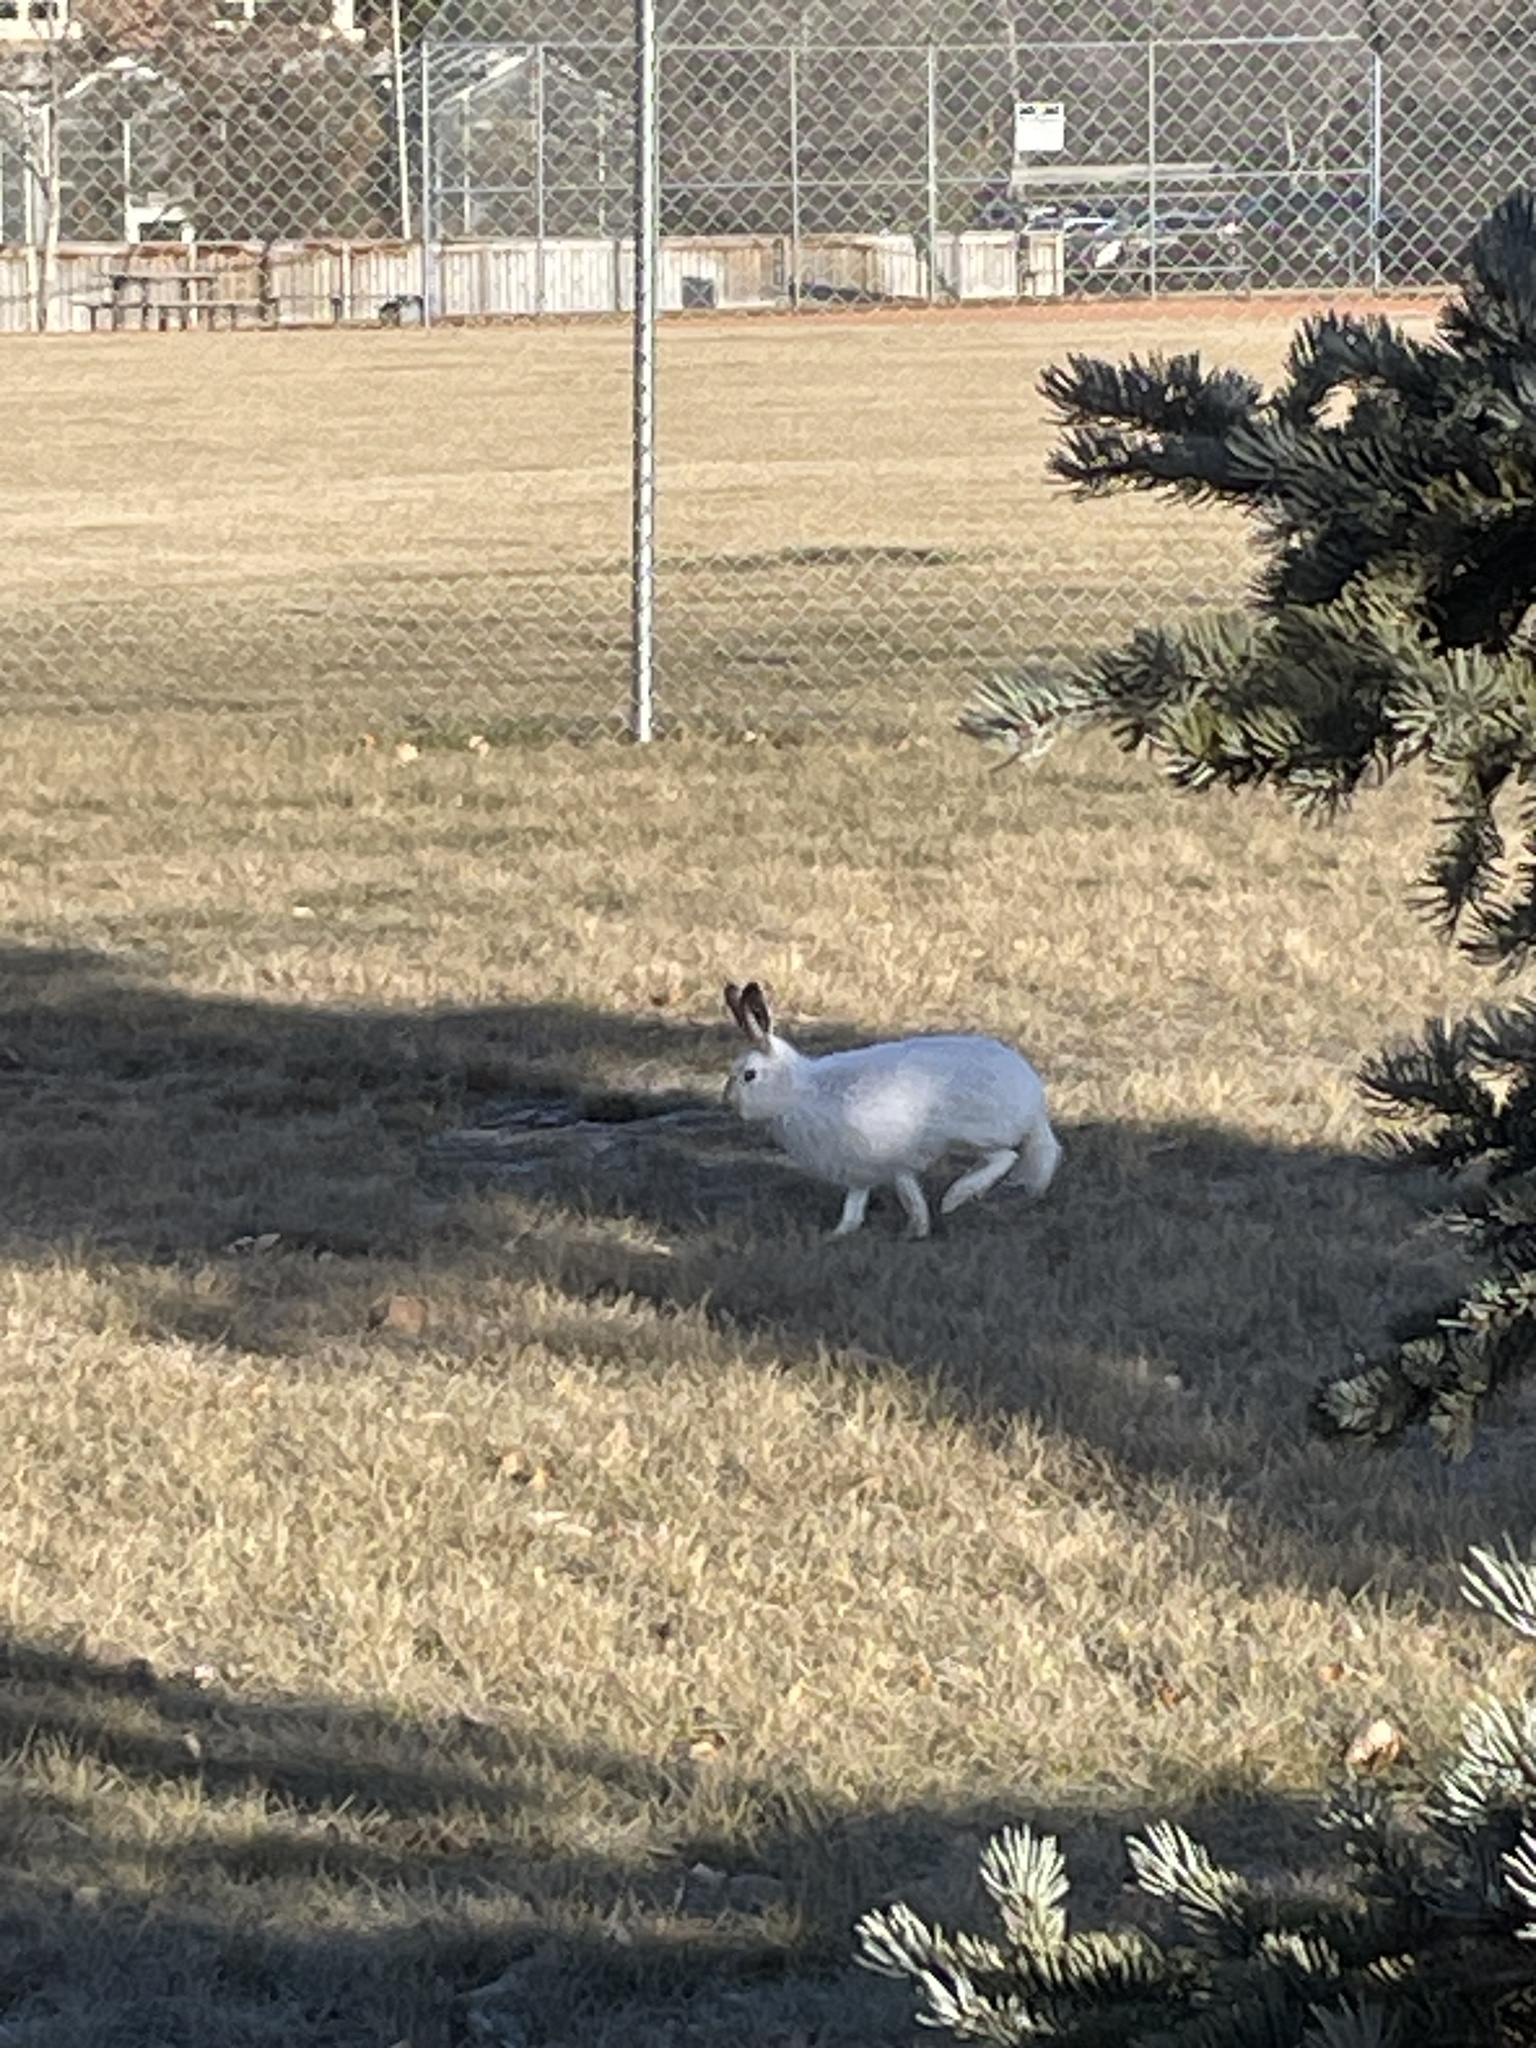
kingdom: Animalia
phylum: Chordata
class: Mammalia
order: Lagomorpha
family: Leporidae
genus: Lepus
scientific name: Lepus americanus
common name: Snowshoe hare
